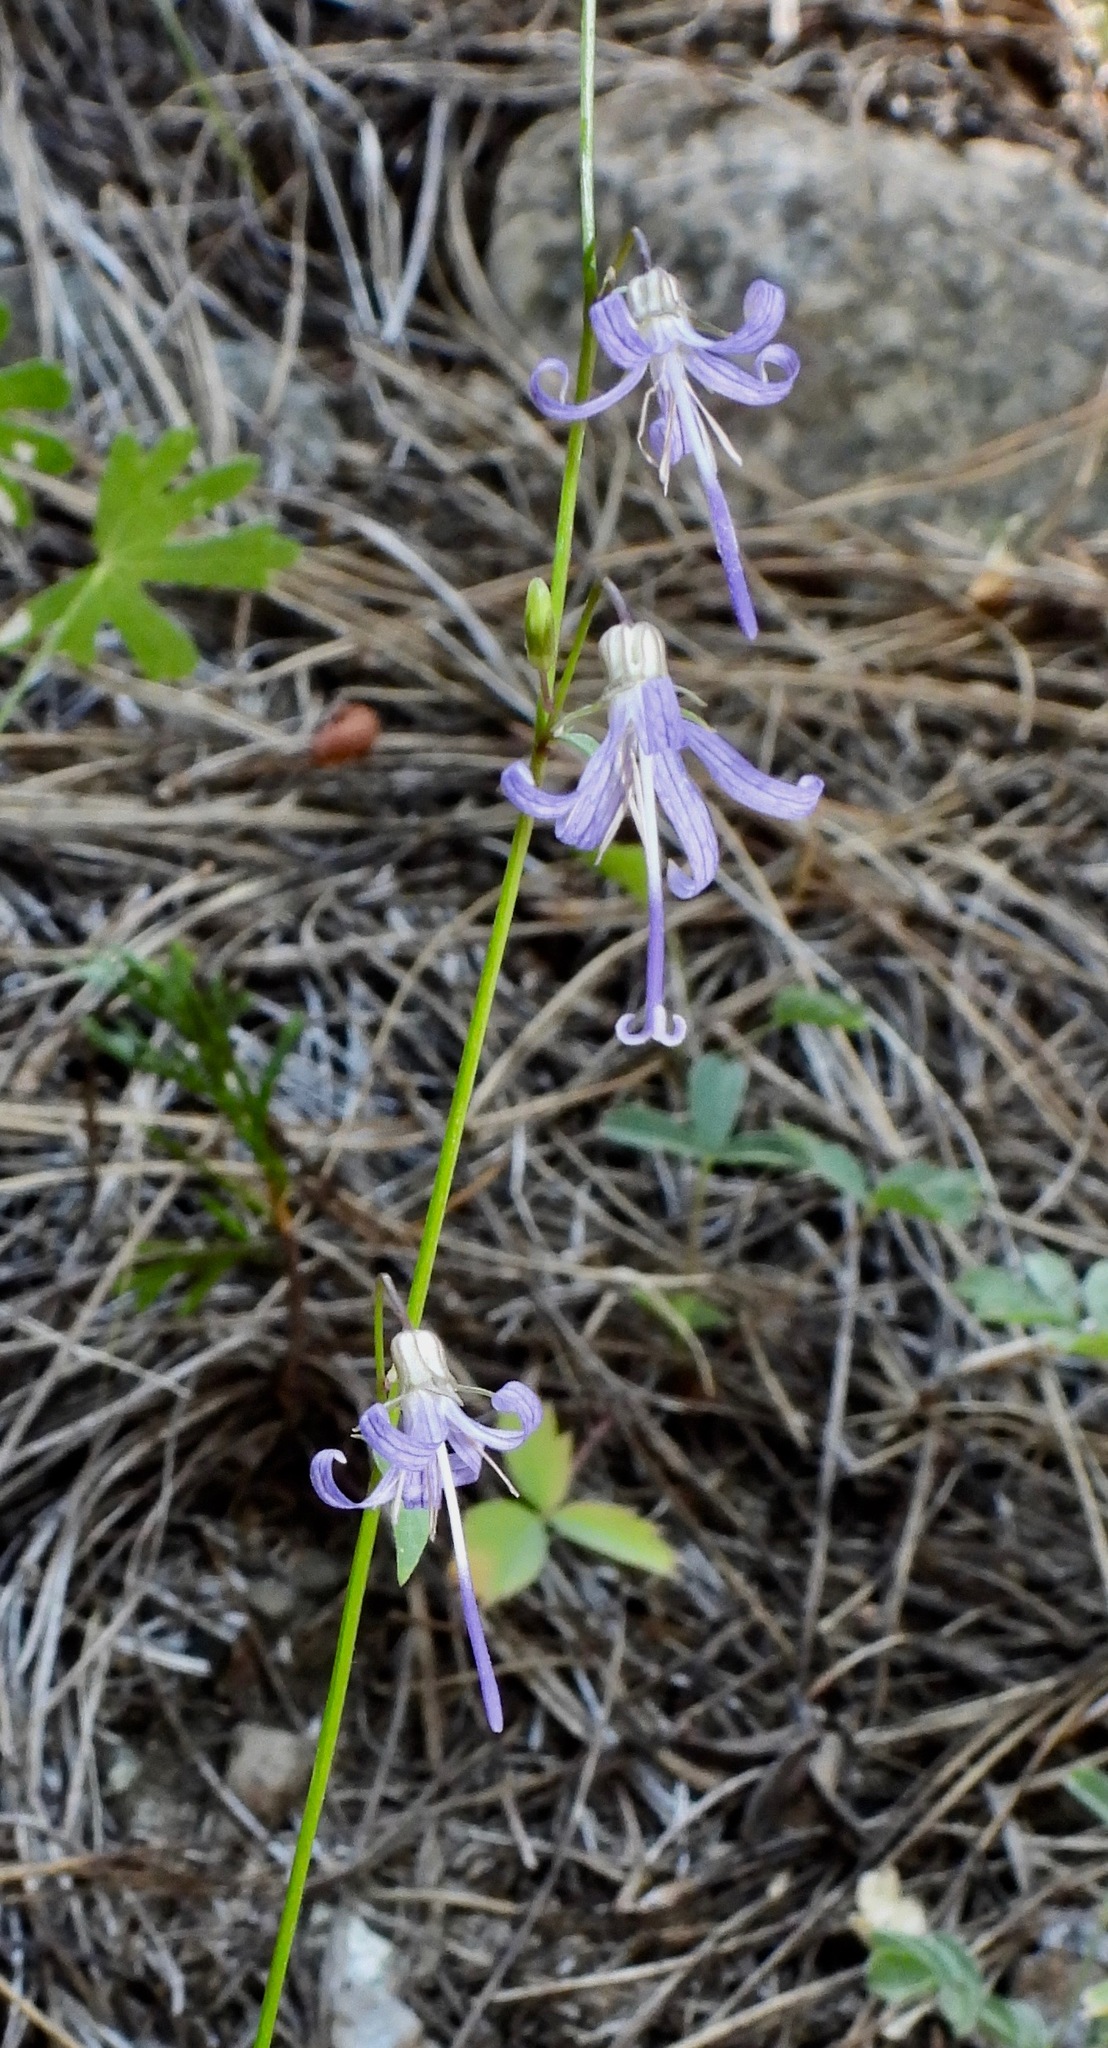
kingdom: Plantae
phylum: Tracheophyta
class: Magnoliopsida
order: Asterales
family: Campanulaceae
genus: Smithiastrum
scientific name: Smithiastrum prenanthoides
